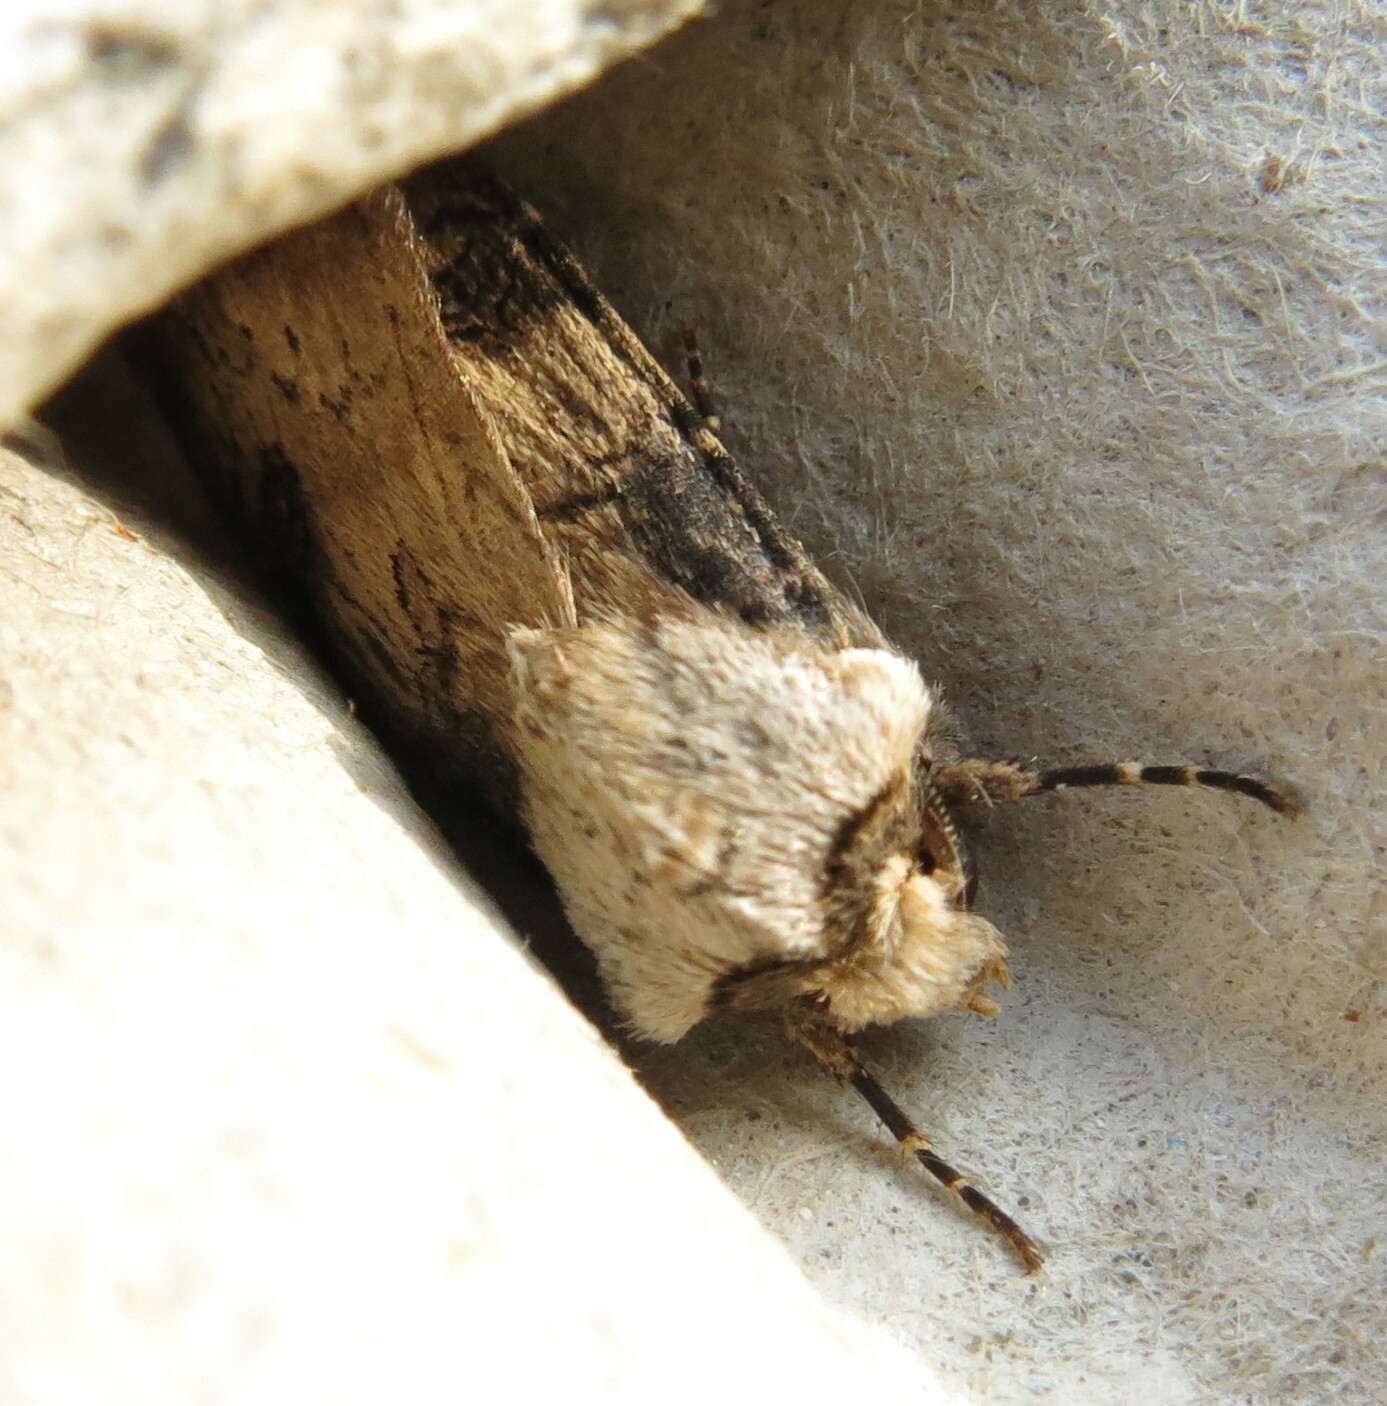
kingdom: Animalia
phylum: Arthropoda
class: Insecta
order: Lepidoptera
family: Noctuidae
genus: Agrotis
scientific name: Agrotis puta
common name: Shuttle-shaped dart
